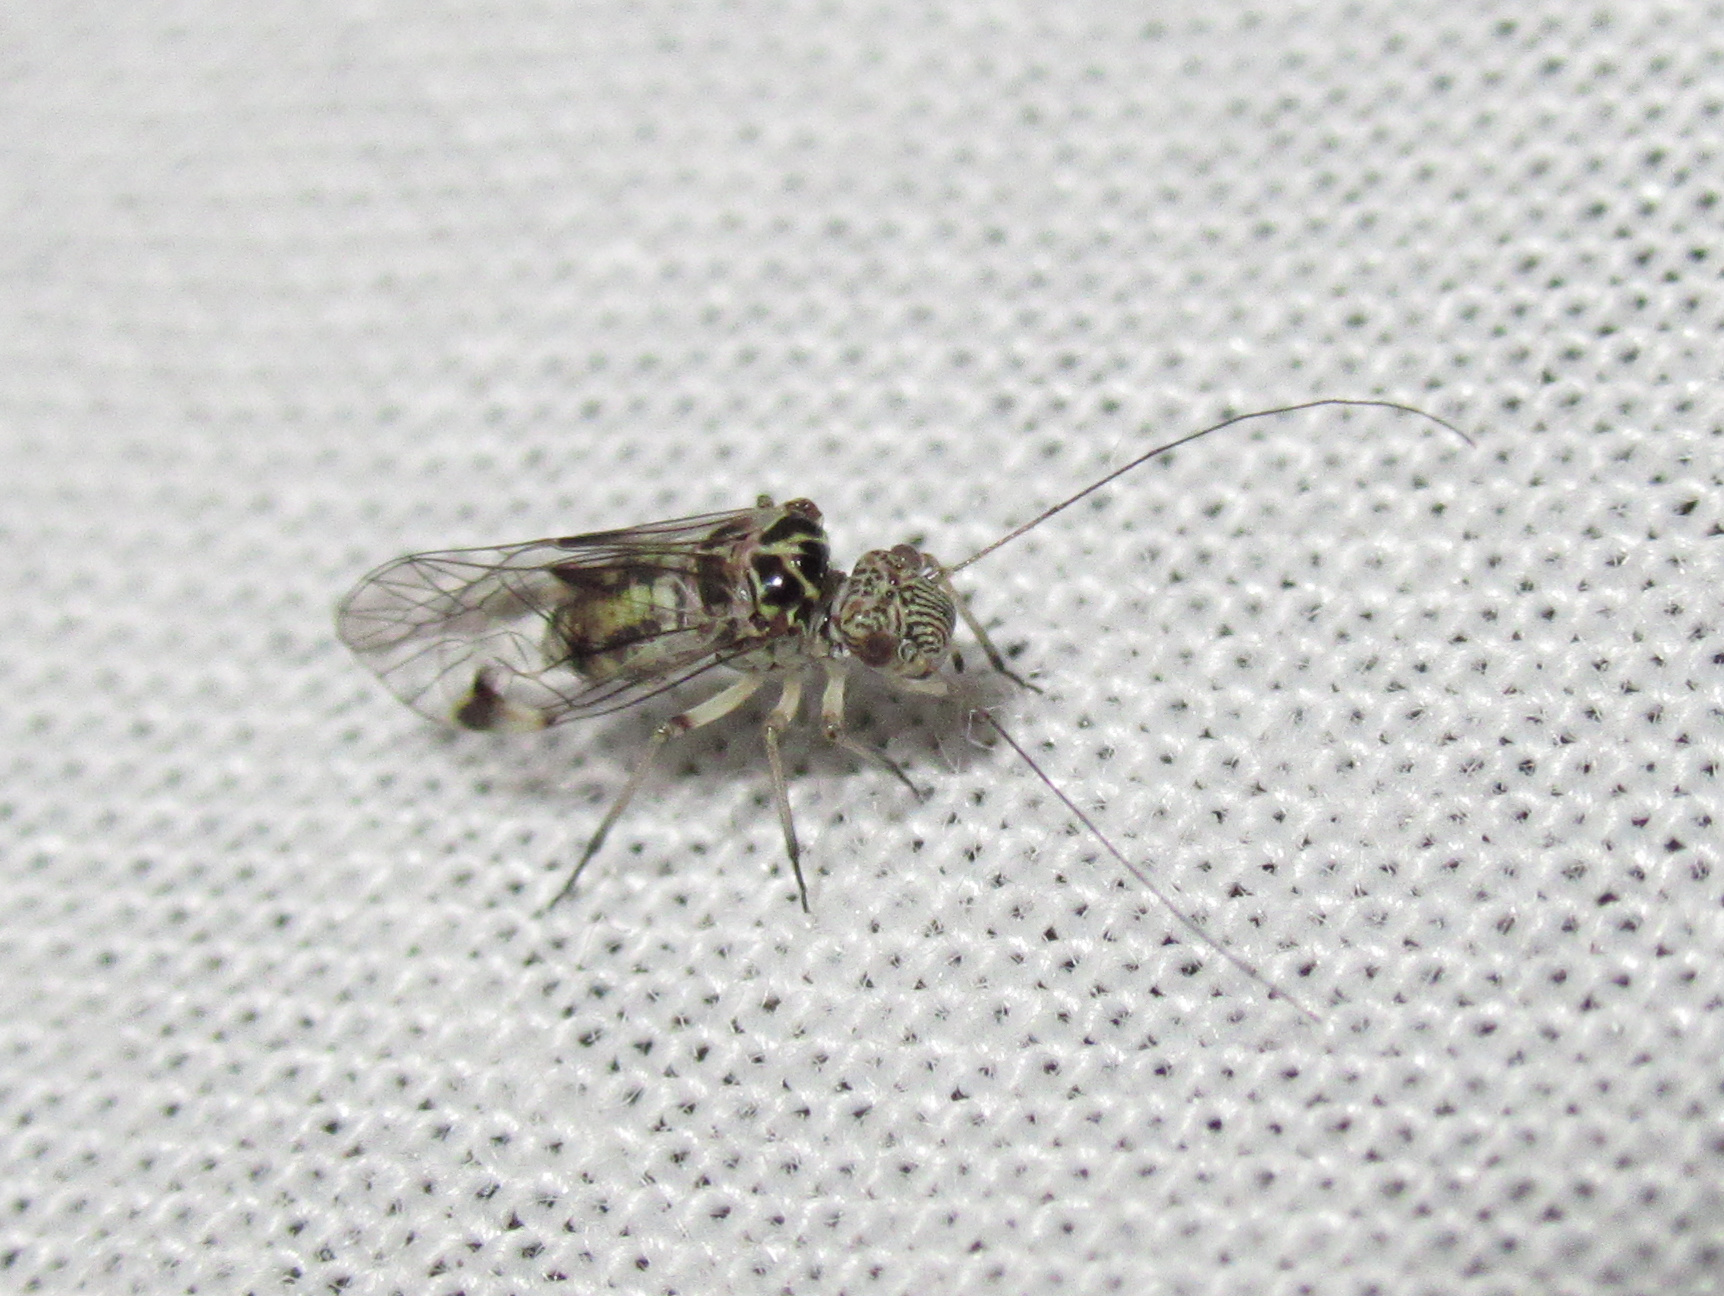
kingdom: Animalia
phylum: Arthropoda
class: Insecta
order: Psocodea
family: Psocidae
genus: Clematostigma
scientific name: Clematostigma maculiceps
